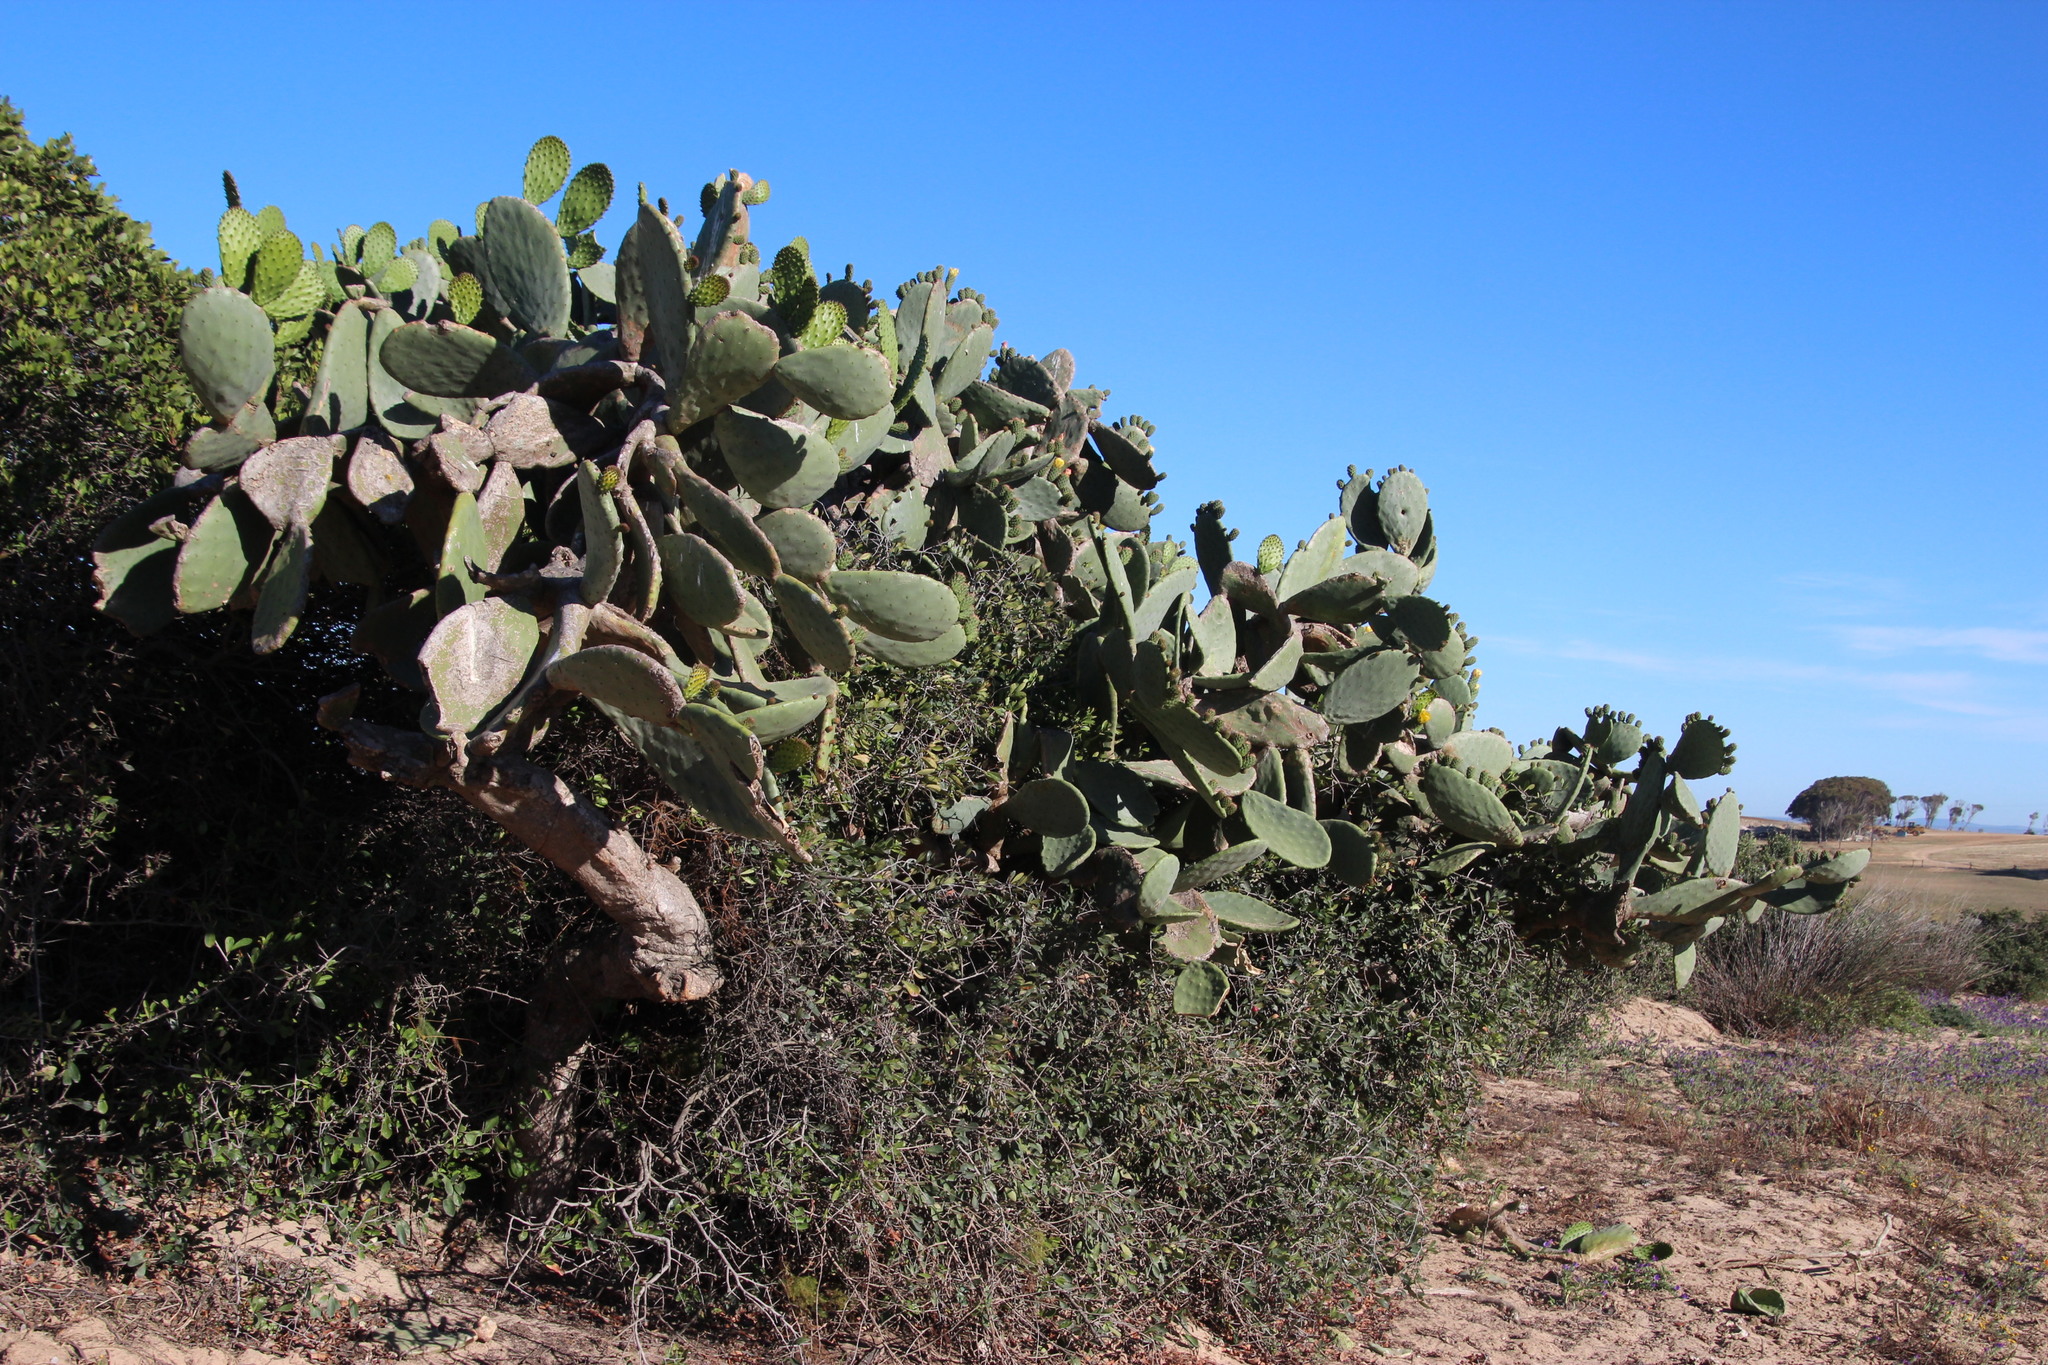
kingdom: Plantae
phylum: Tracheophyta
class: Magnoliopsida
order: Caryophyllales
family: Cactaceae
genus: Opuntia
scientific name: Opuntia ficus-indica
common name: Barbary fig
